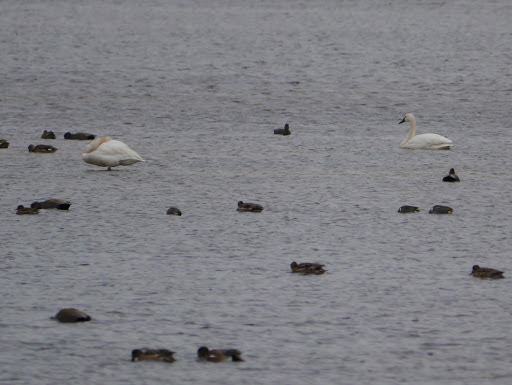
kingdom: Animalia
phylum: Chordata
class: Aves
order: Anseriformes
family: Anatidae
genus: Cygnus
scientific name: Cygnus columbianus
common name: Tundra swan
